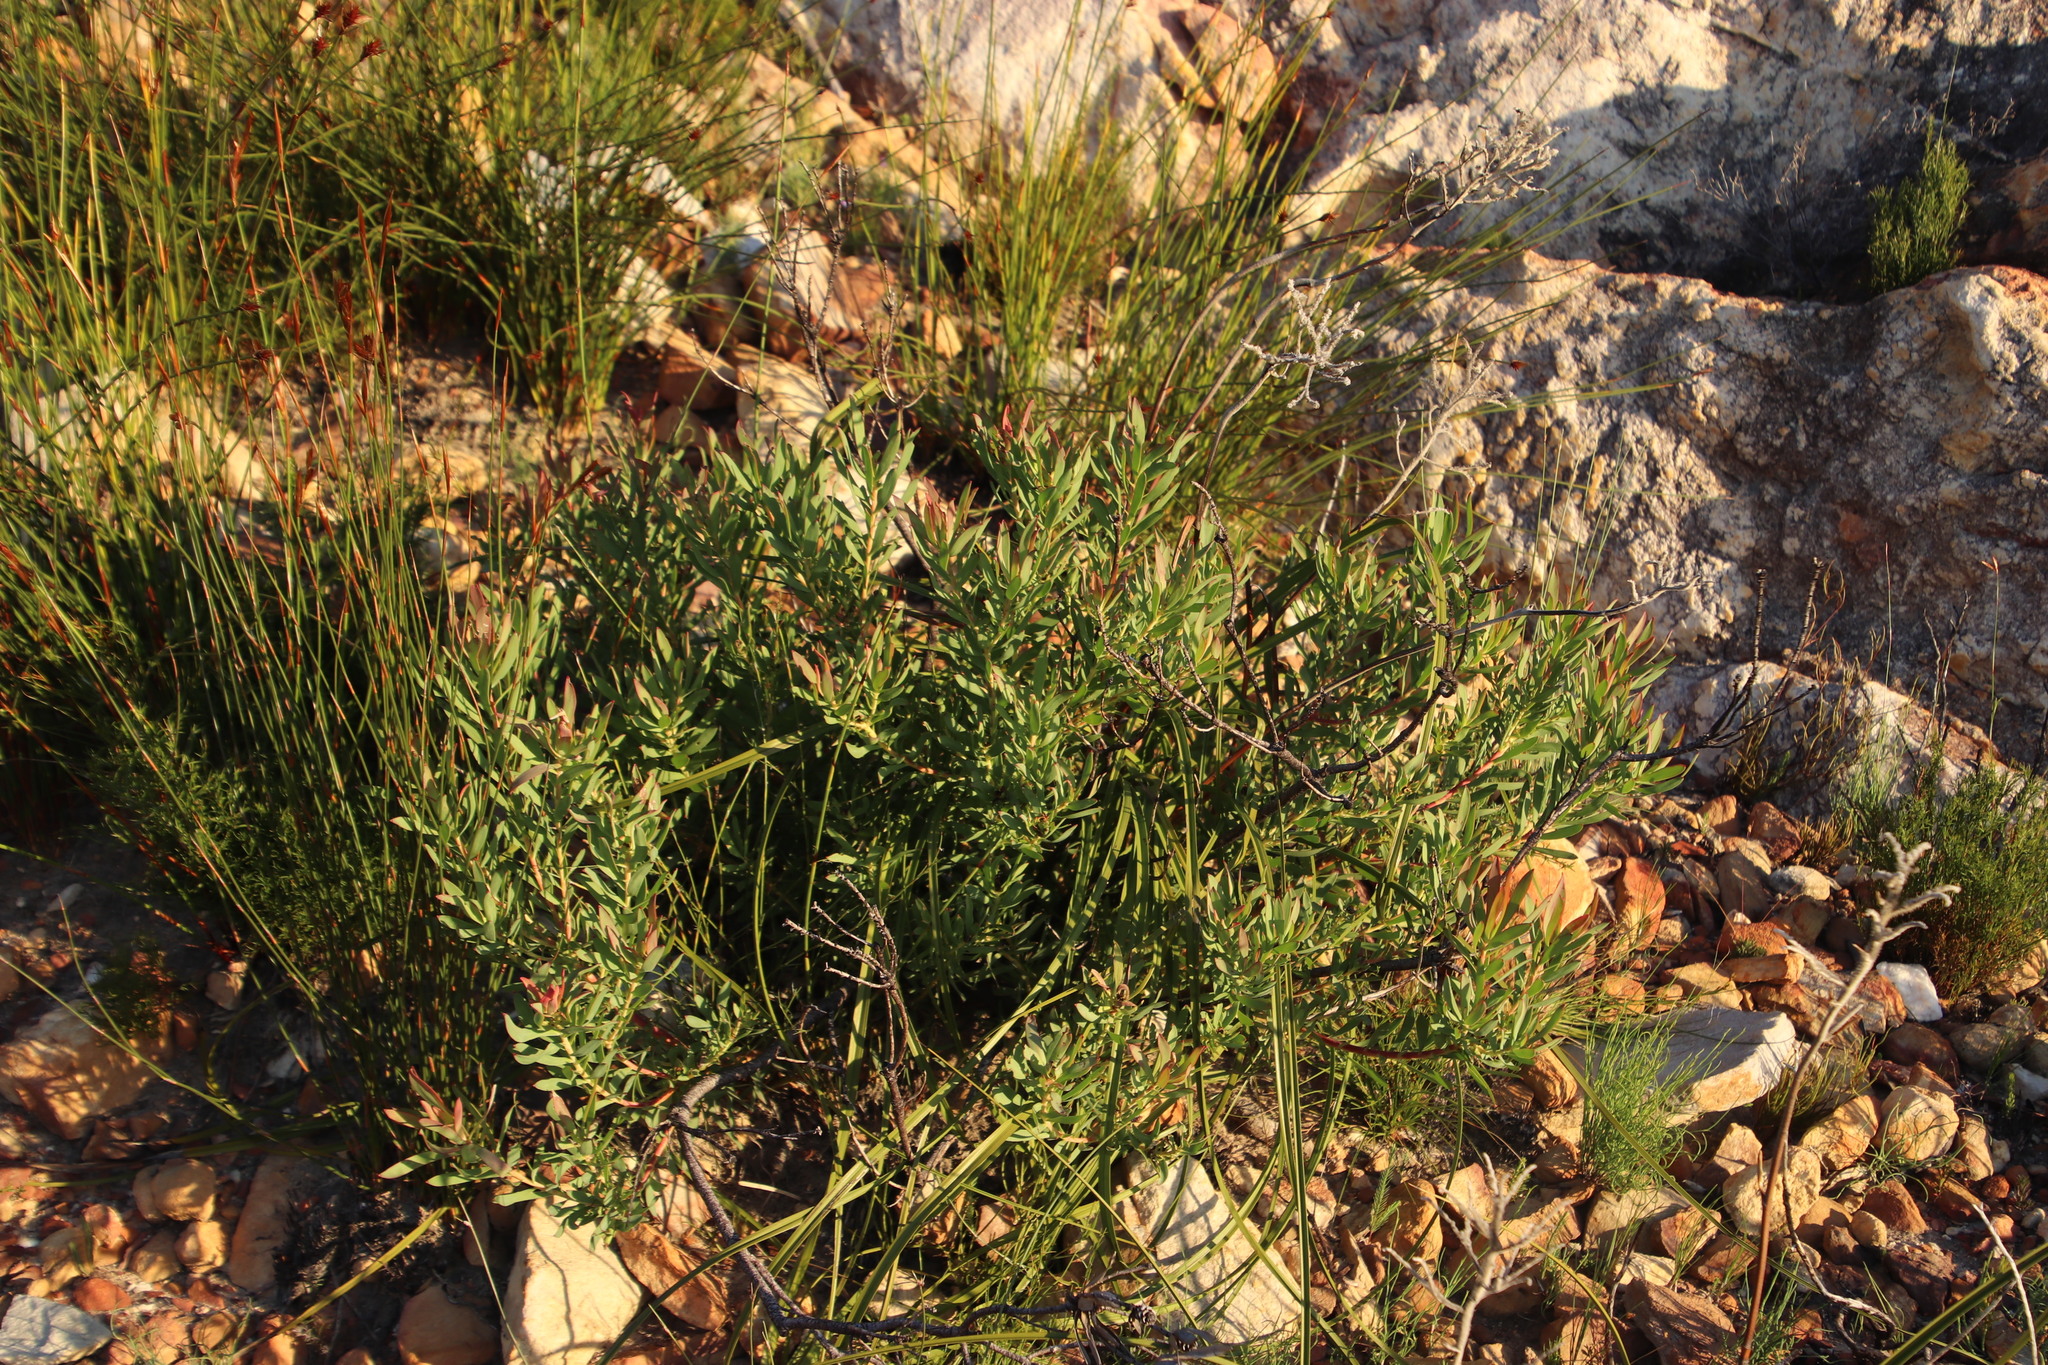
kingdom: Plantae
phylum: Tracheophyta
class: Magnoliopsida
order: Proteales
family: Proteaceae
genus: Leucadendron
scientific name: Leucadendron salignum
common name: Common sunshine conebush
